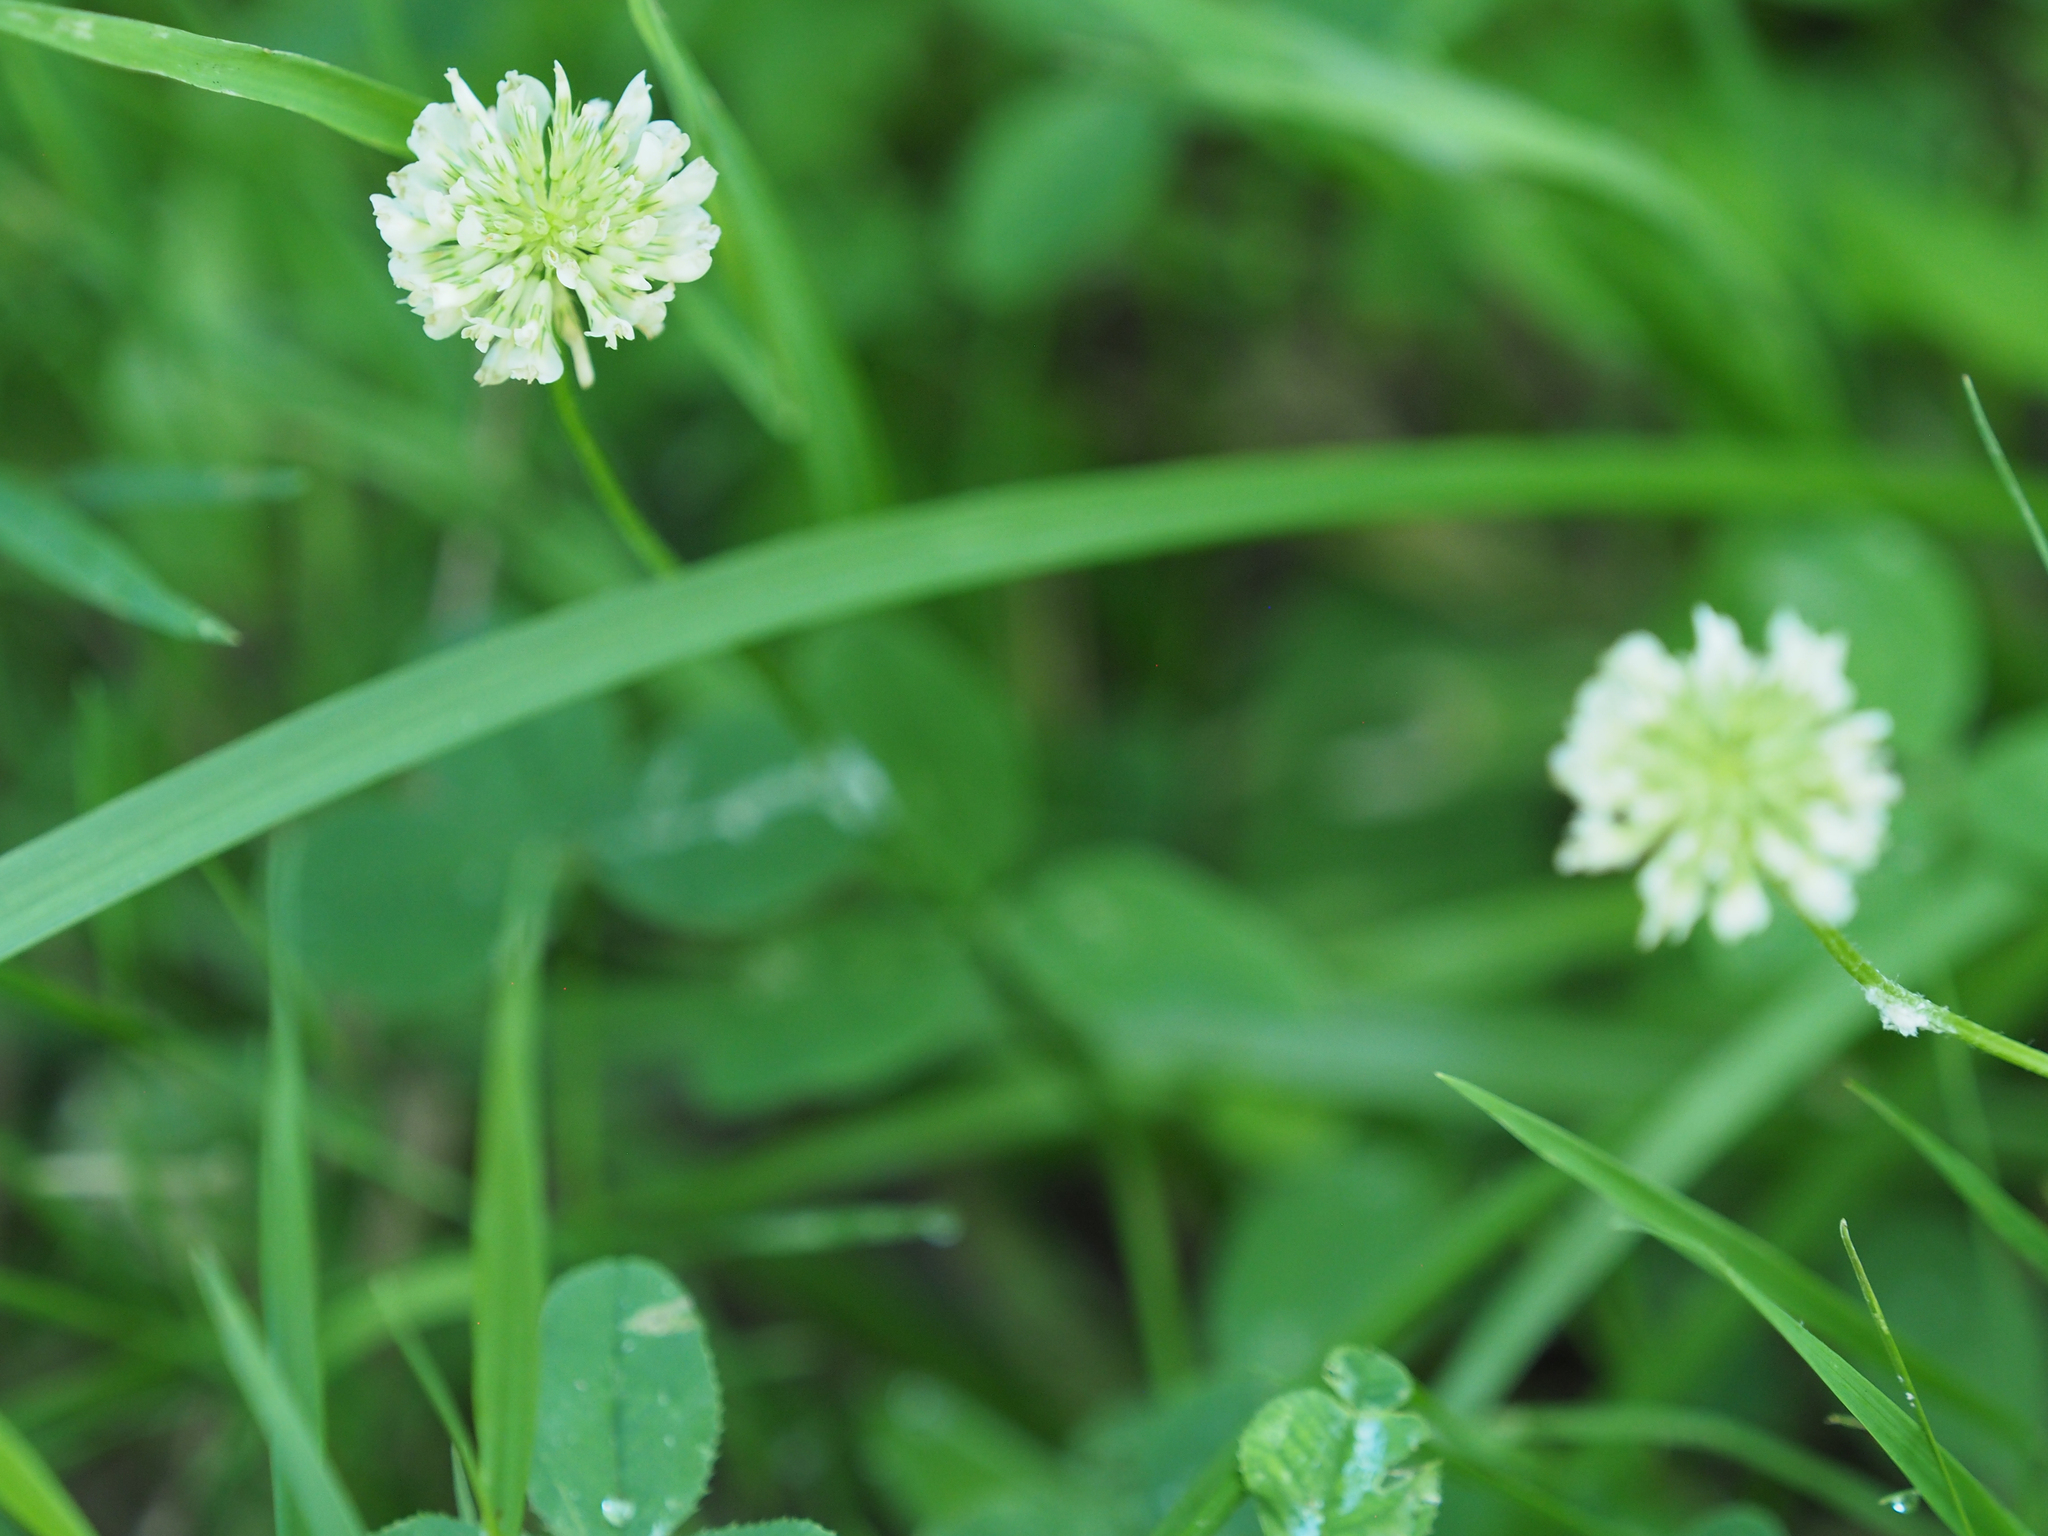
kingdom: Plantae
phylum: Tracheophyta
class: Magnoliopsida
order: Fabales
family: Fabaceae
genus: Trifolium
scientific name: Trifolium repens
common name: White clover
